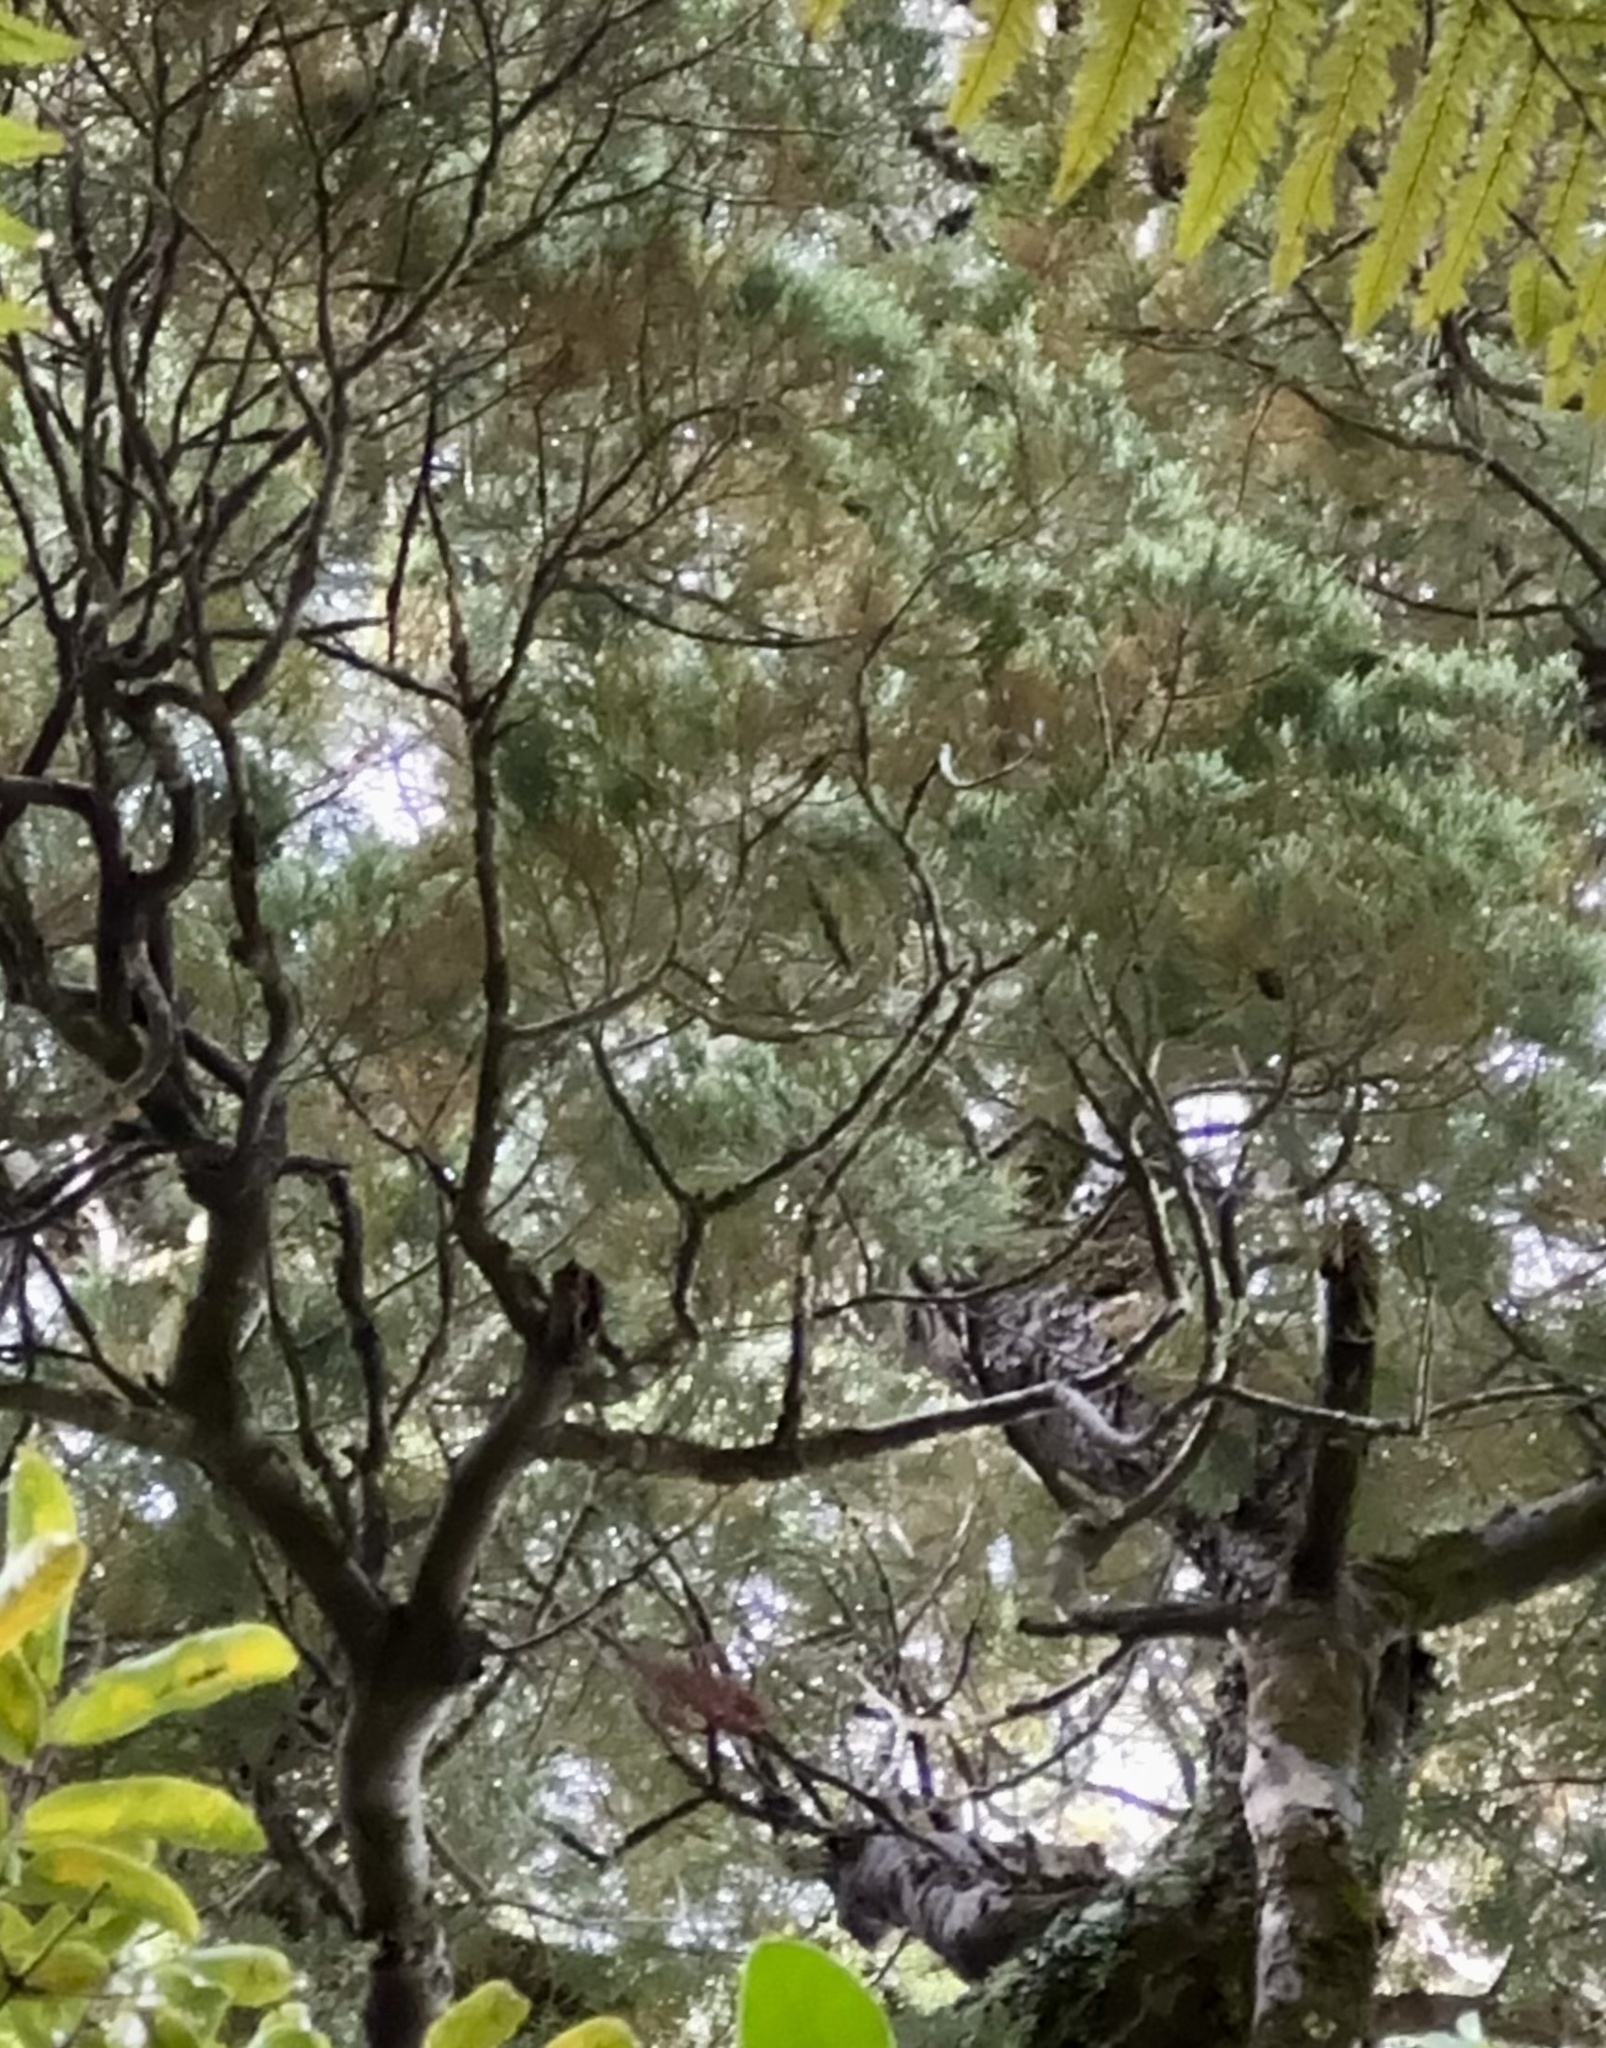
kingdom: Plantae
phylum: Tracheophyta
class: Pinopsida
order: Pinales
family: Podocarpaceae
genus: Dacrycarpus
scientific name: Dacrycarpus dacrydioides
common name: White pine
